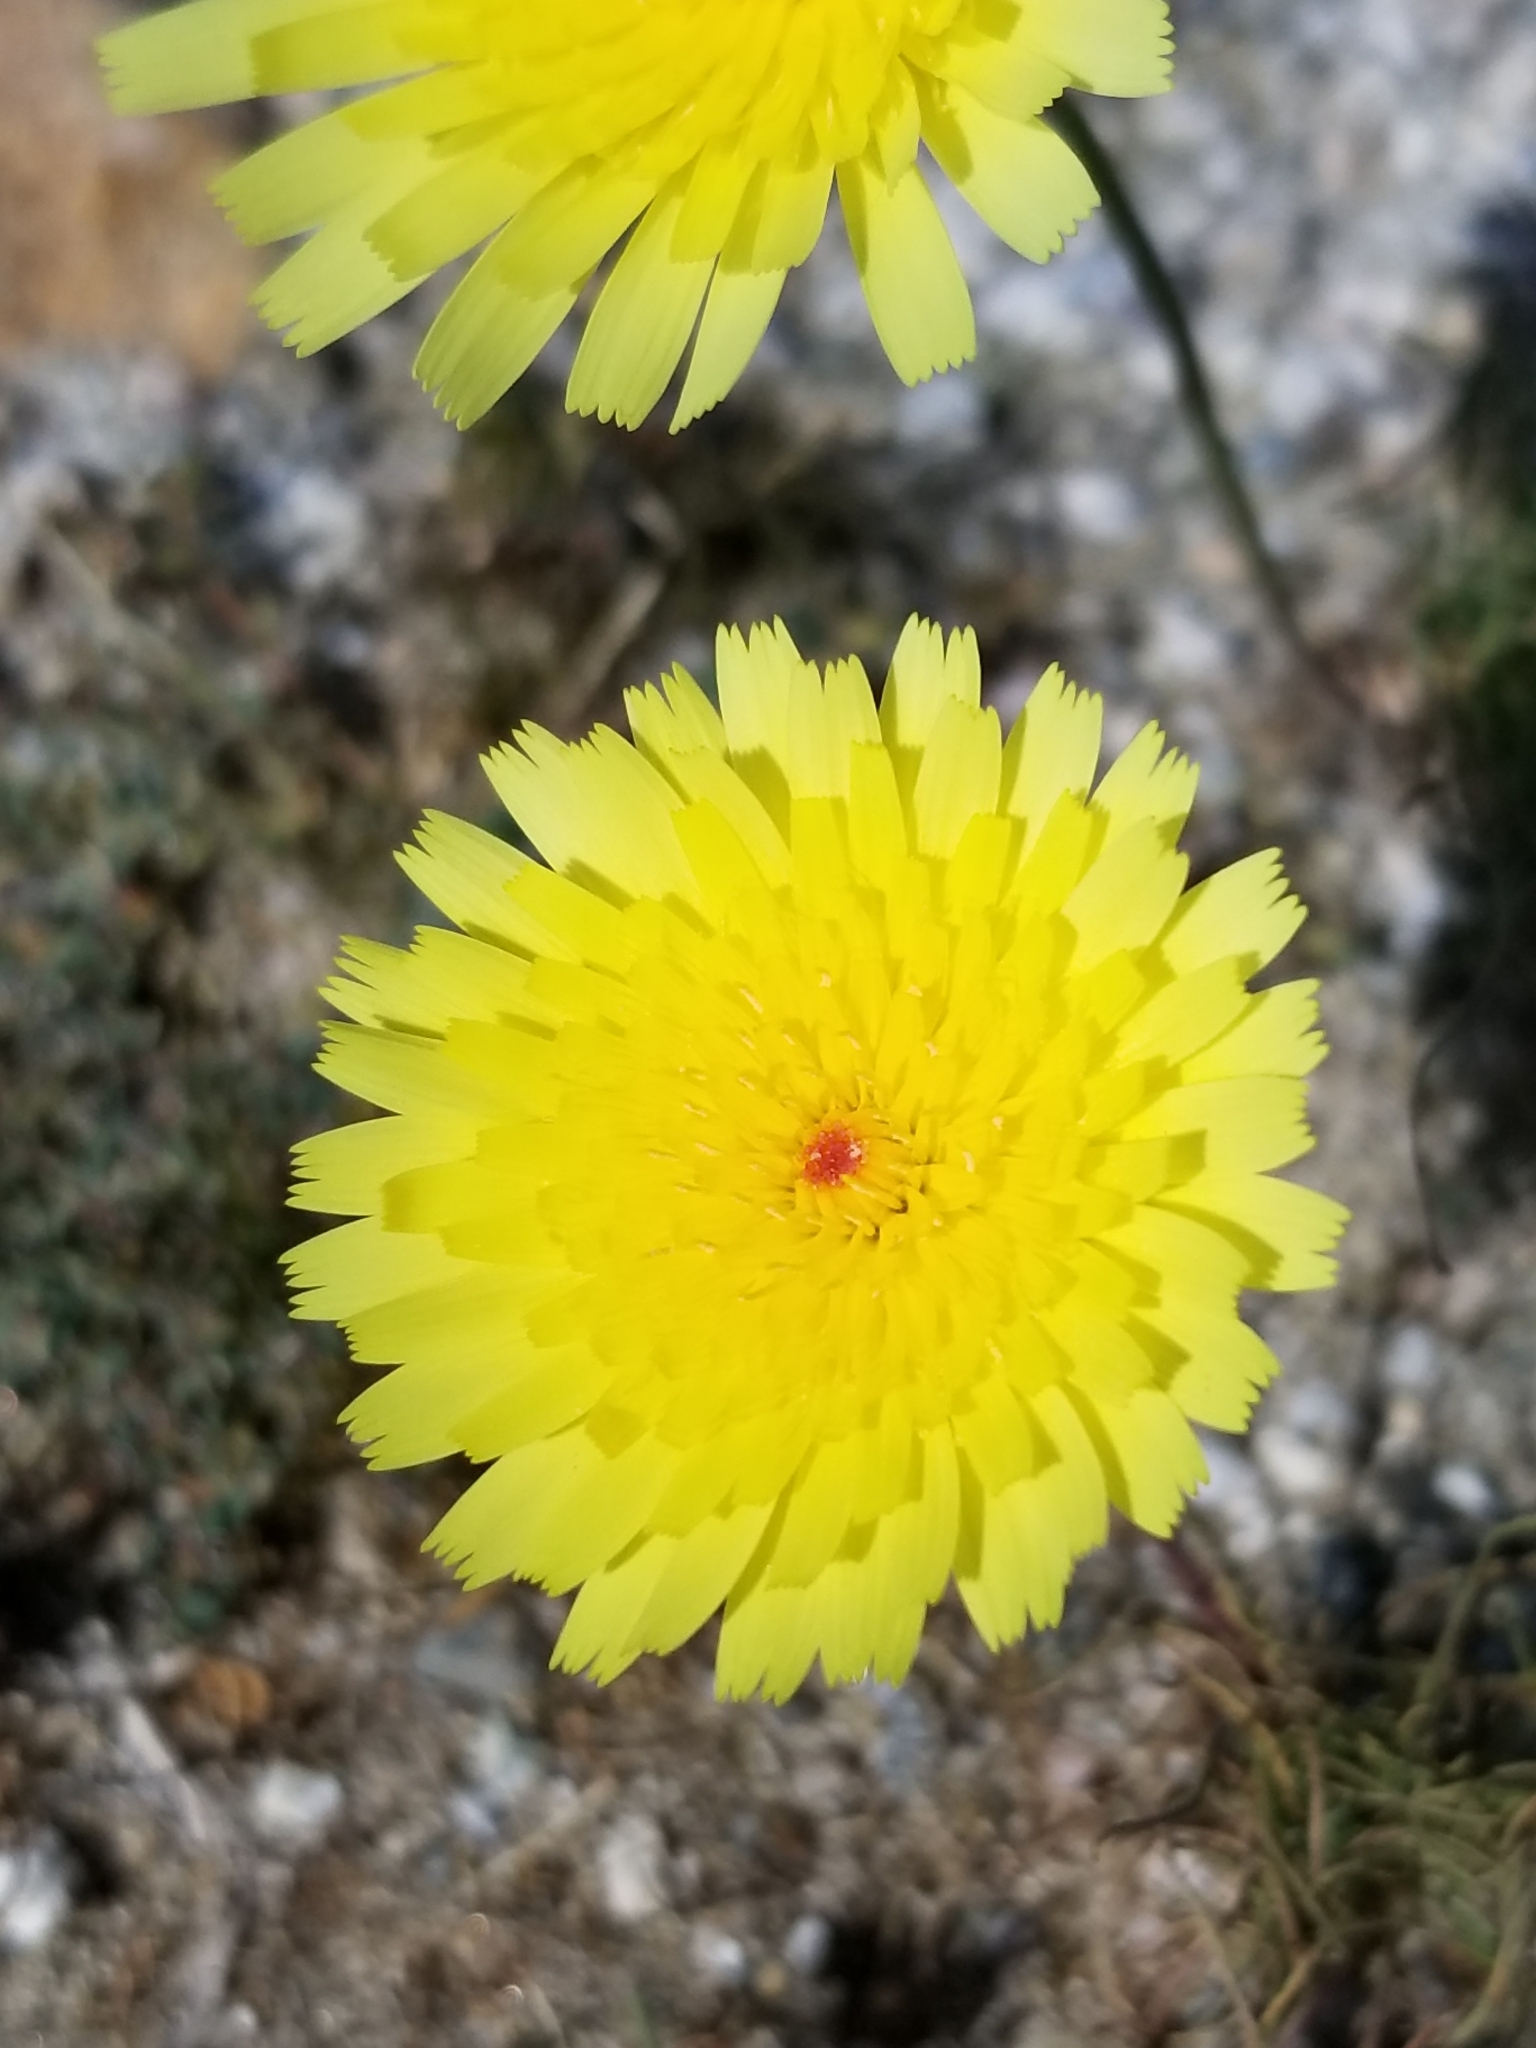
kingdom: Plantae
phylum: Tracheophyta
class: Magnoliopsida
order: Asterales
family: Asteraceae
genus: Malacothrix
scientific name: Malacothrix glabrata
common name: Smooth desert-dandelion
